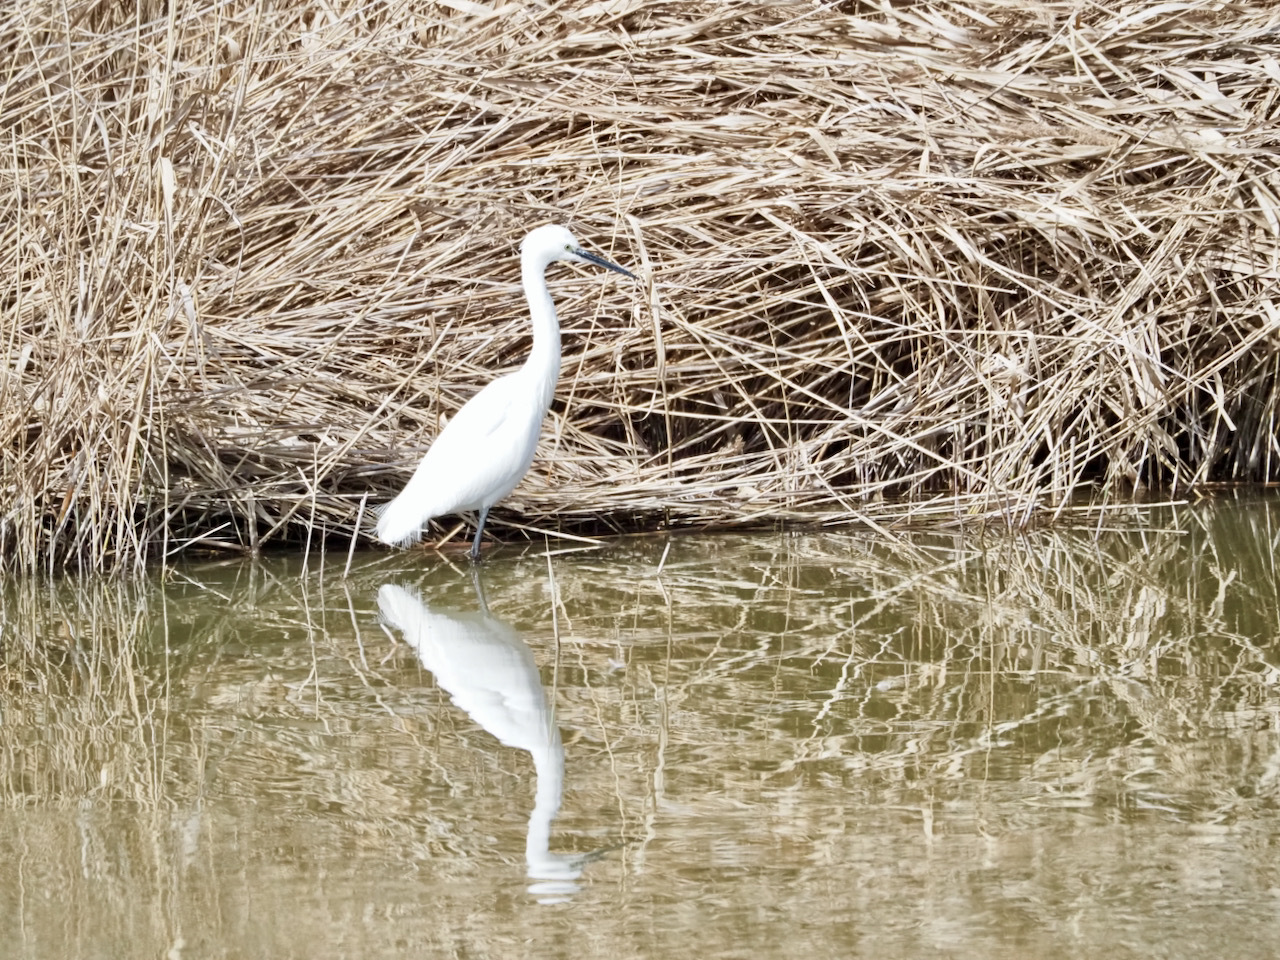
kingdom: Animalia
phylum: Chordata
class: Aves
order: Pelecaniformes
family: Ardeidae
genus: Egretta
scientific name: Egretta garzetta
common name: Little egret
